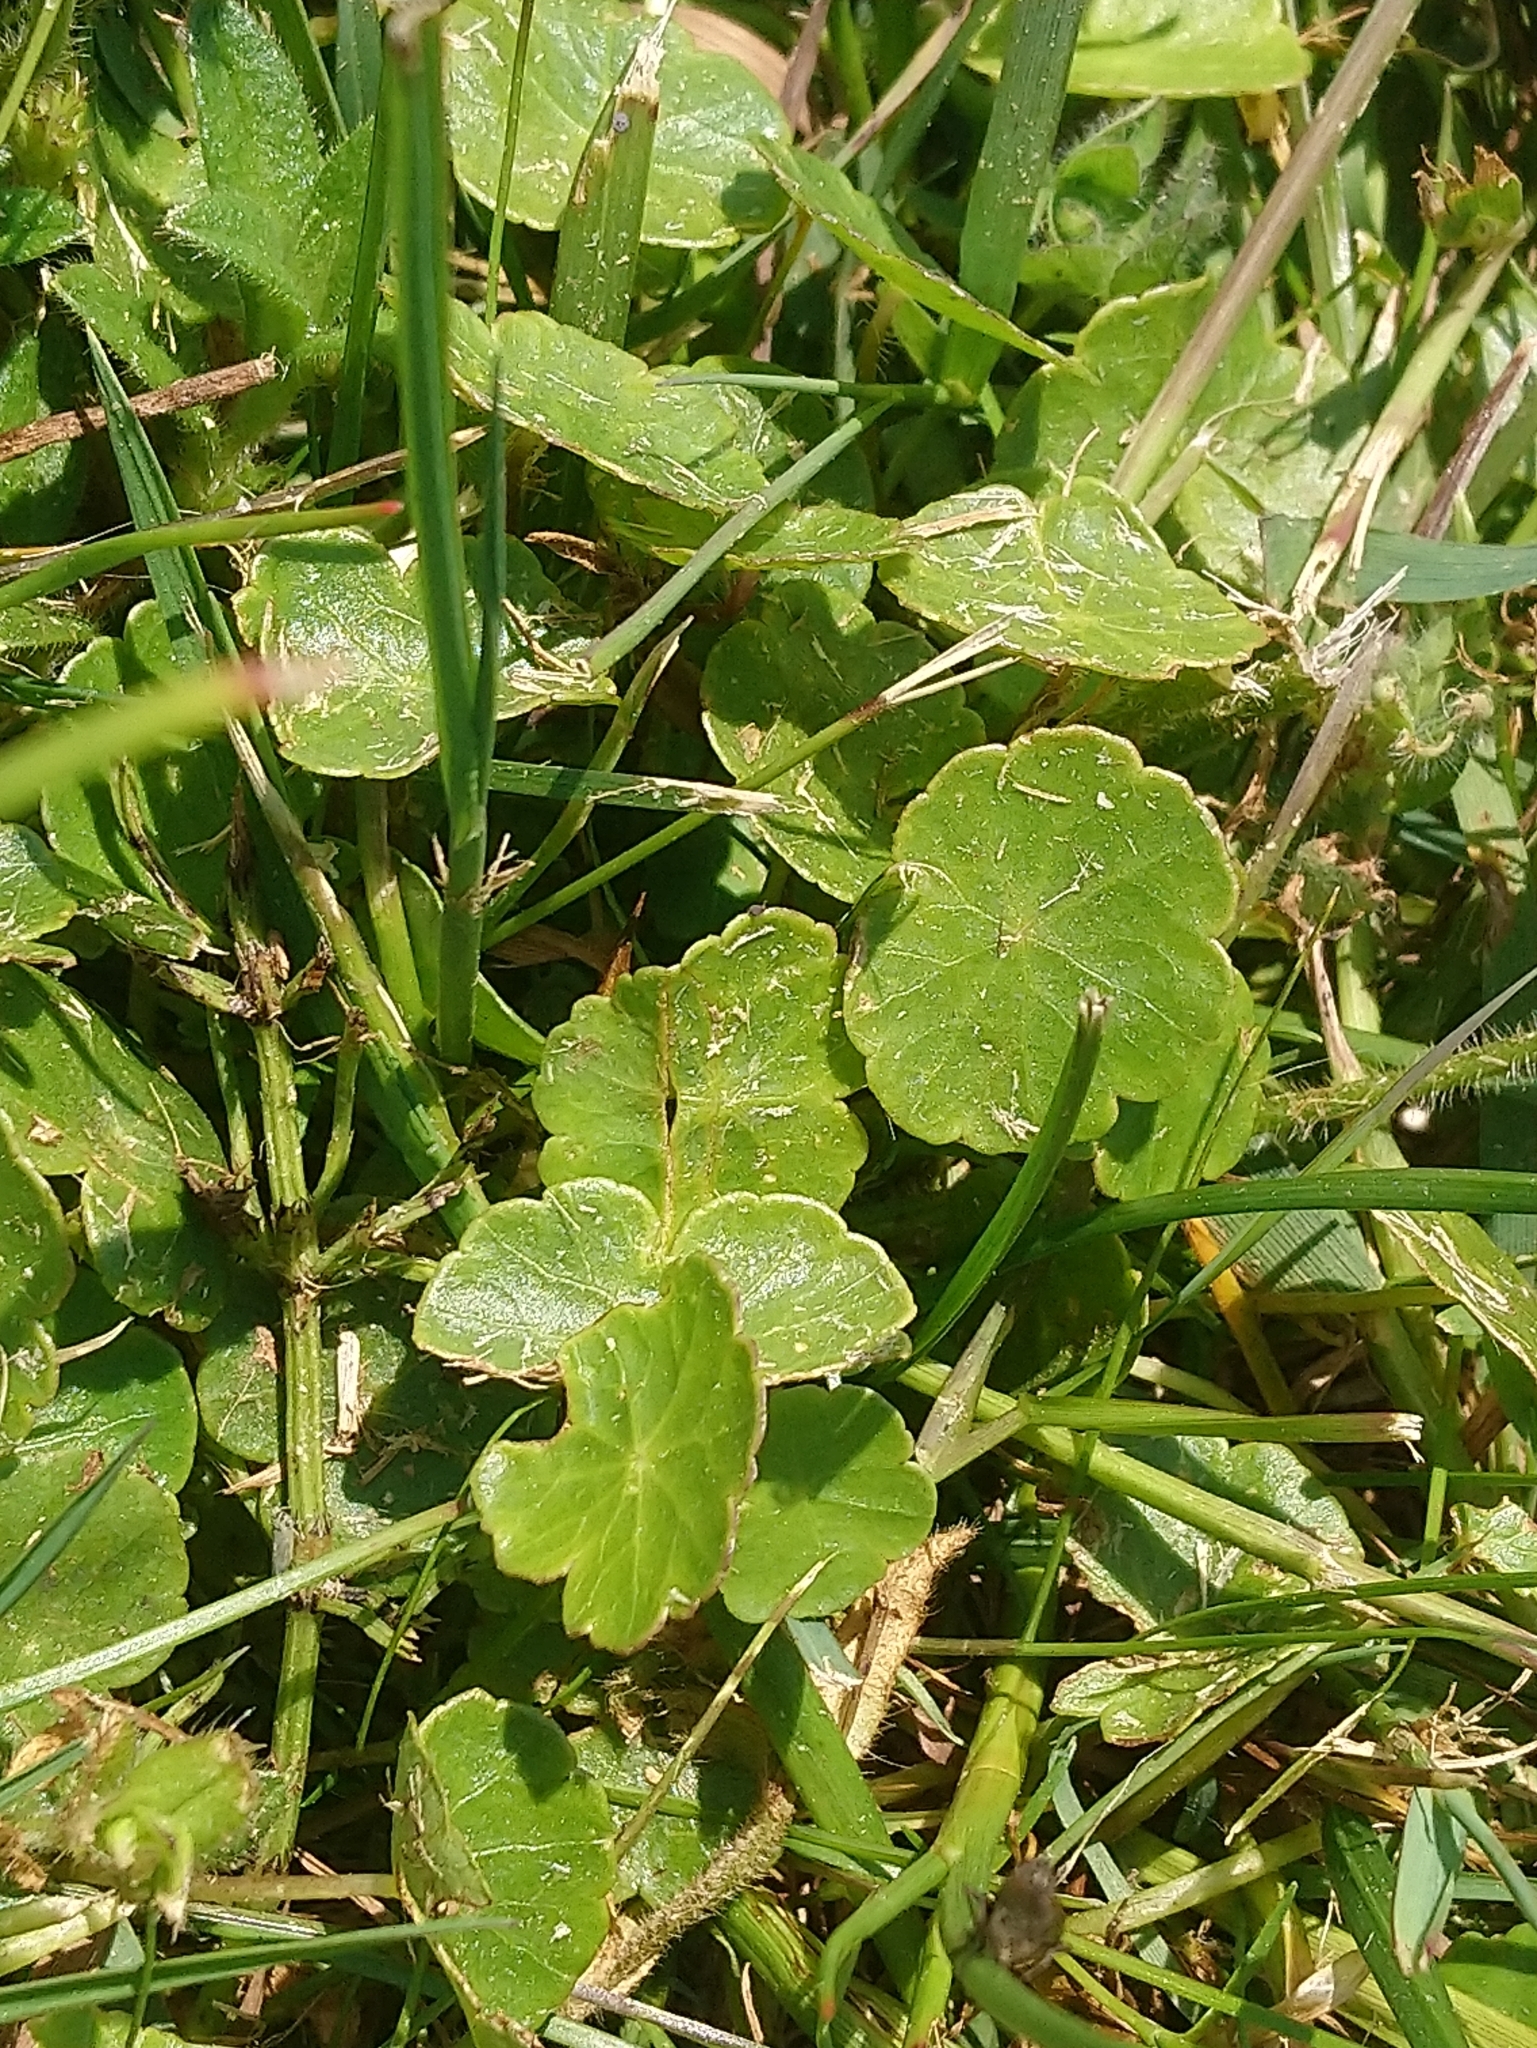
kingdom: Plantae
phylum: Tracheophyta
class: Magnoliopsida
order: Apiales
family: Araliaceae
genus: Hydrocotyle
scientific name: Hydrocotyle vulgaris
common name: Marsh pennywort
